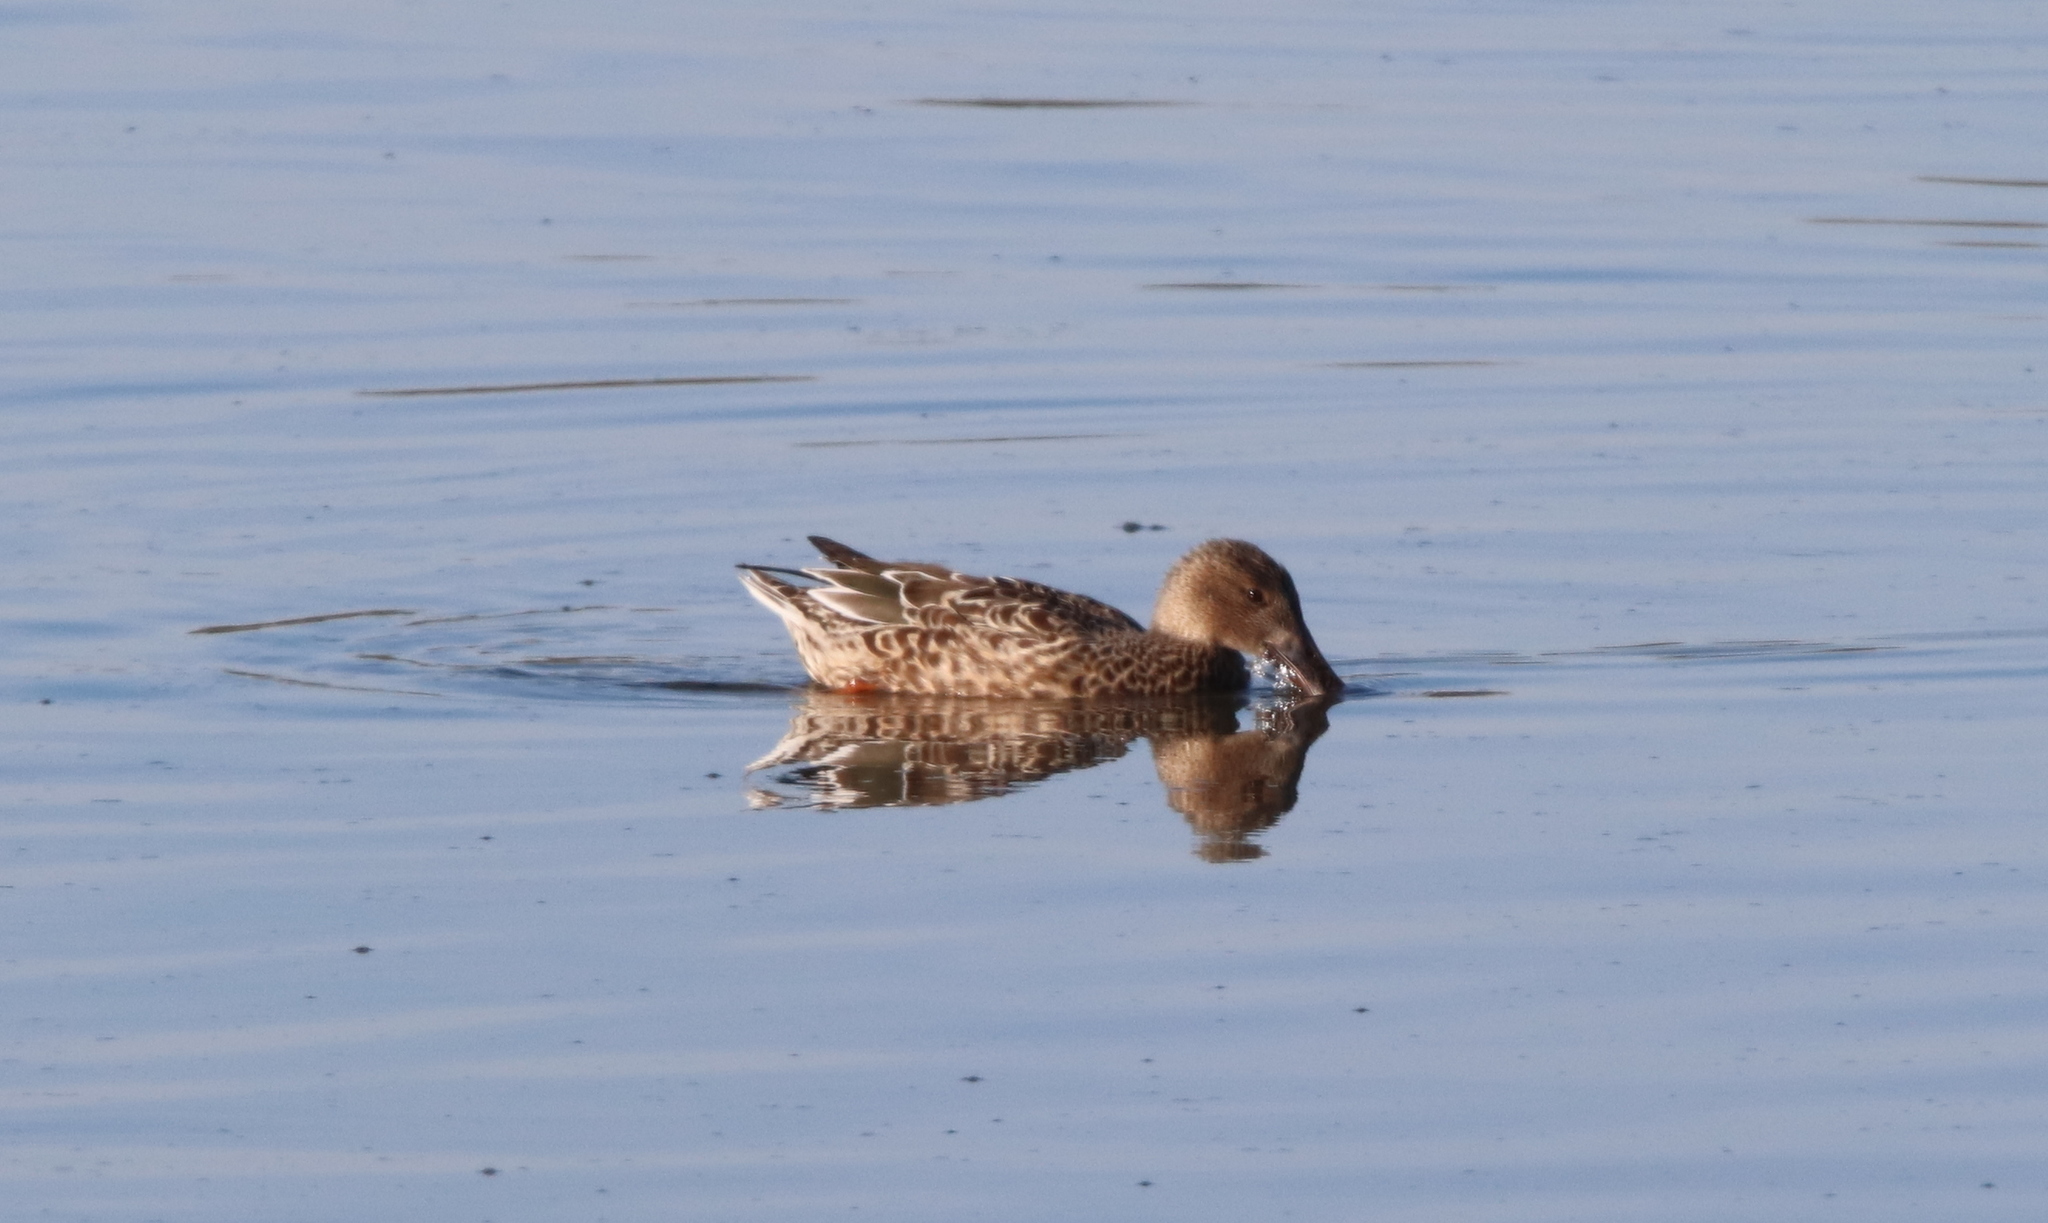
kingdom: Animalia
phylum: Chordata
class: Aves
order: Anseriformes
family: Anatidae
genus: Spatula
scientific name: Spatula clypeata
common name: Northern shoveler
